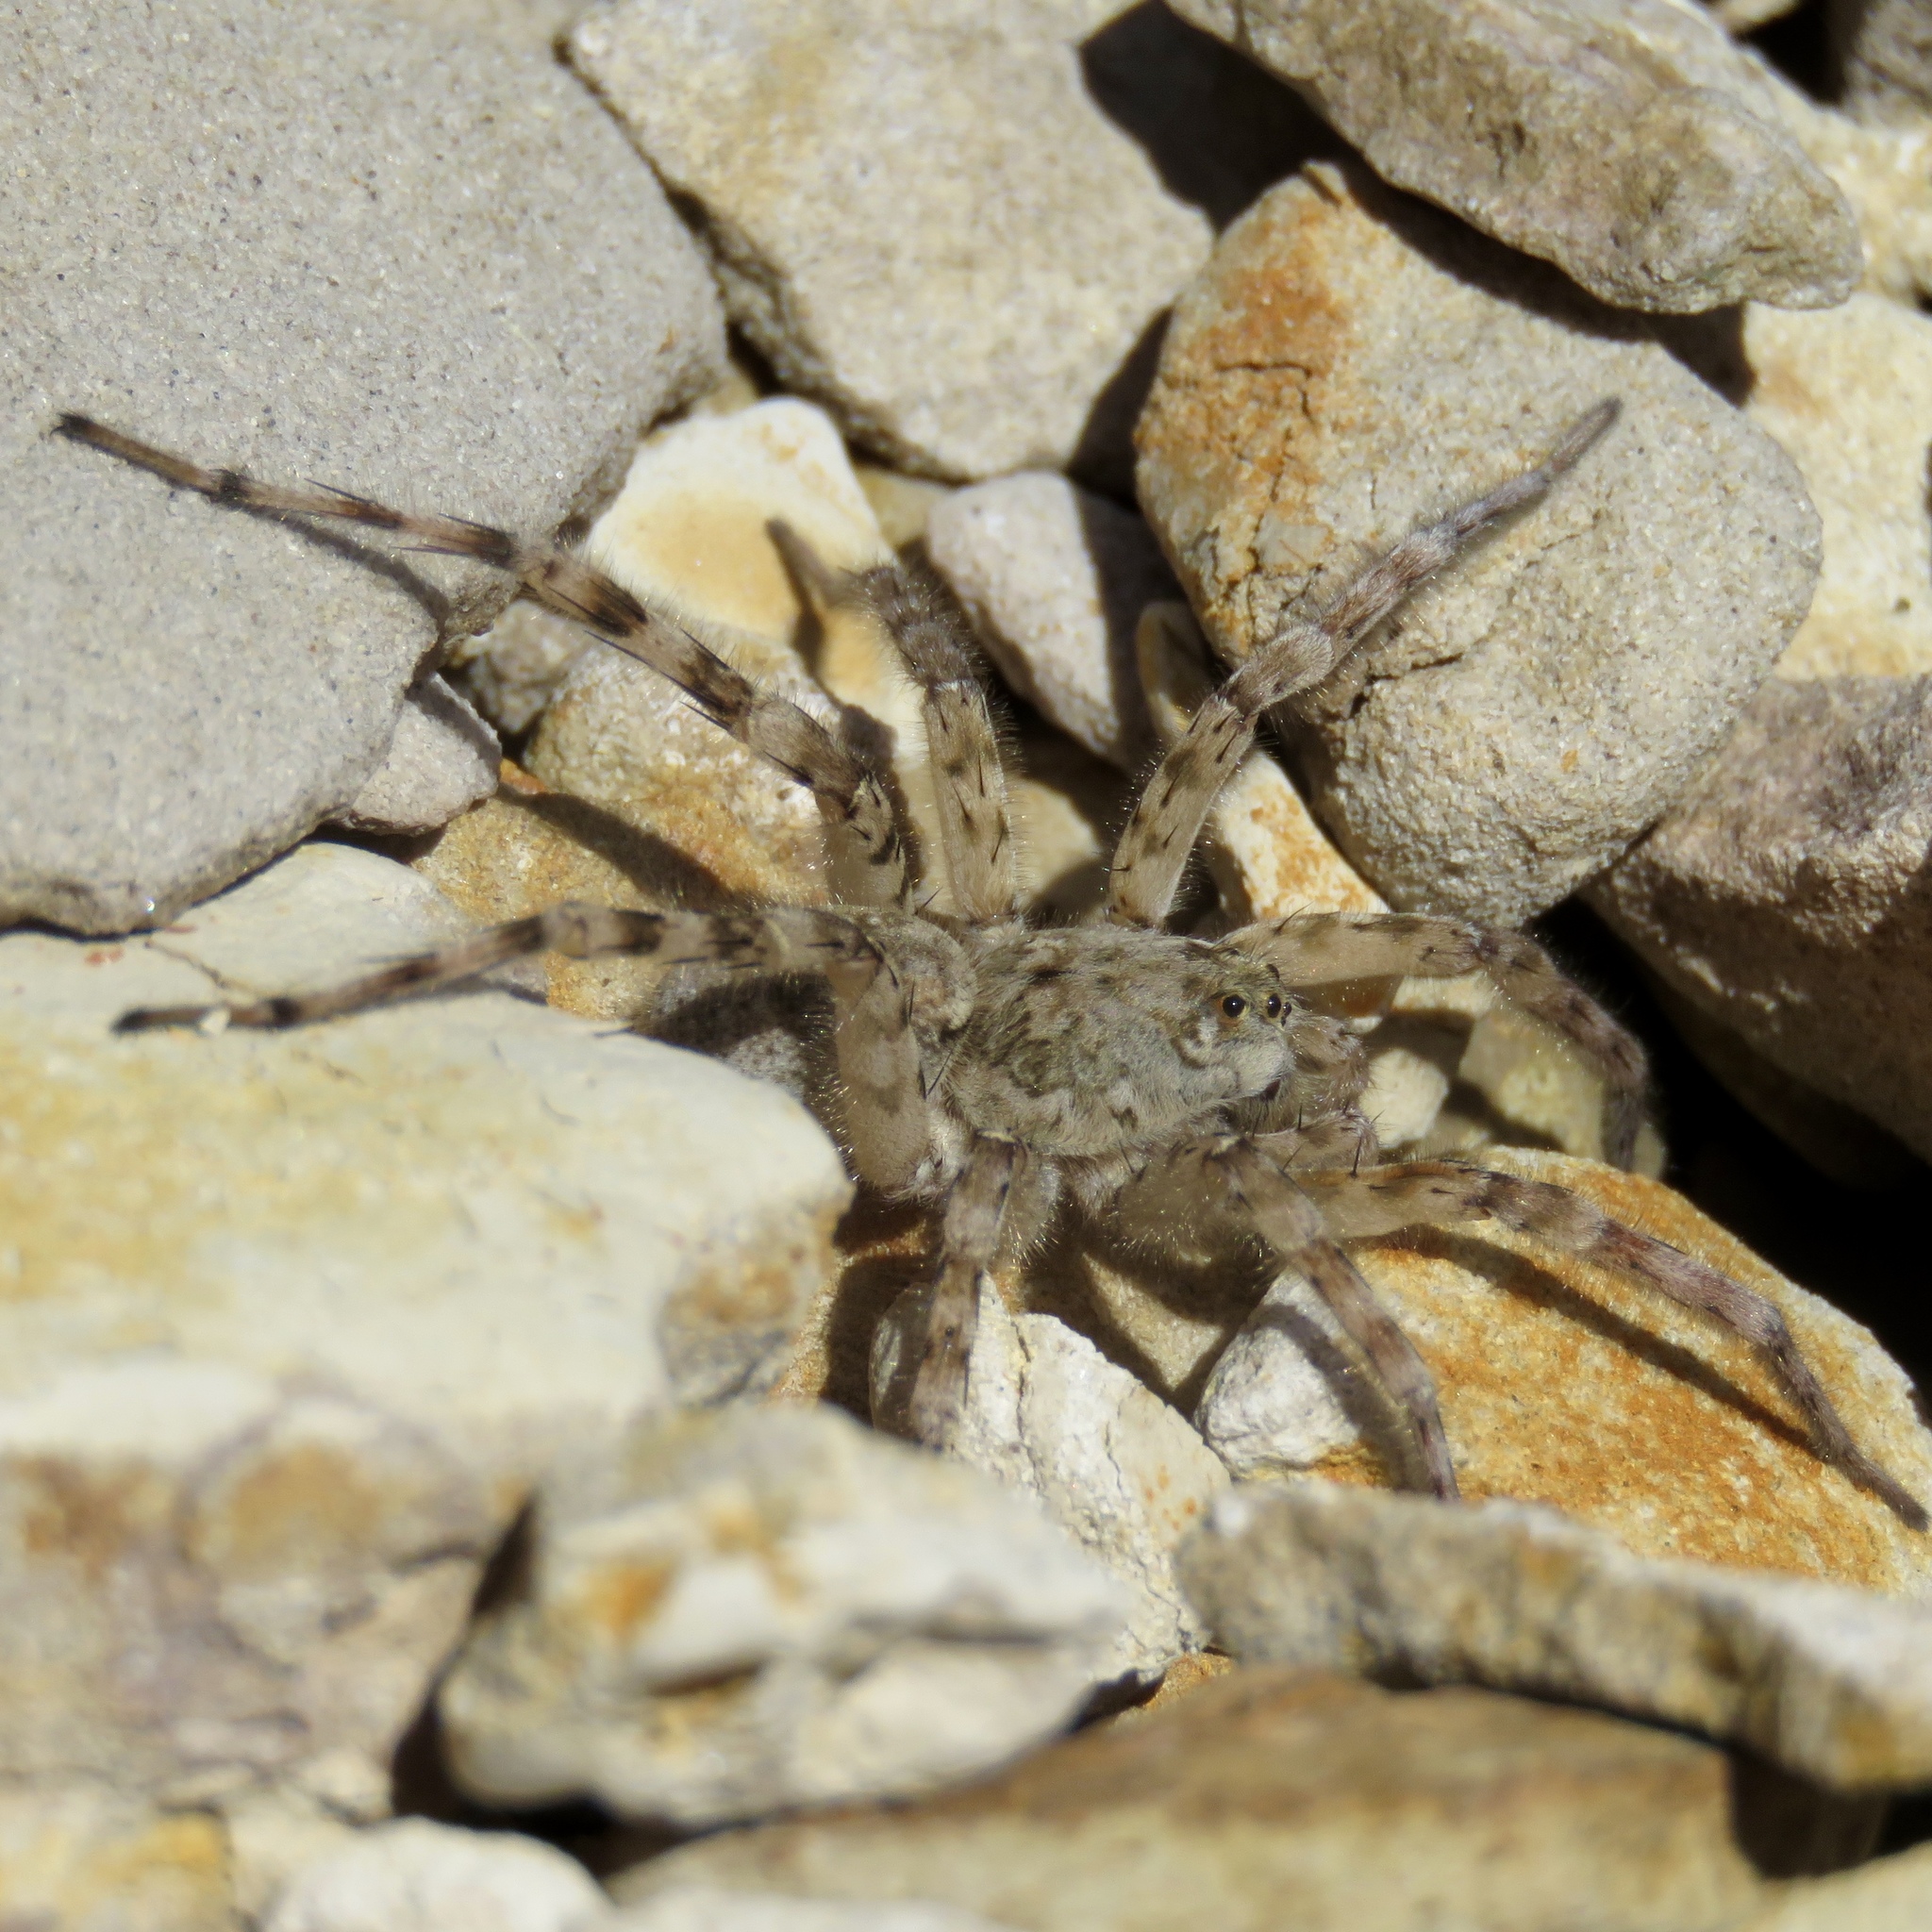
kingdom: Animalia
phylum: Arthropoda
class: Arachnida
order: Araneae
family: Lycosidae
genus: Arctosa
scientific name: Arctosa littoralis
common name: Wolf spiders
